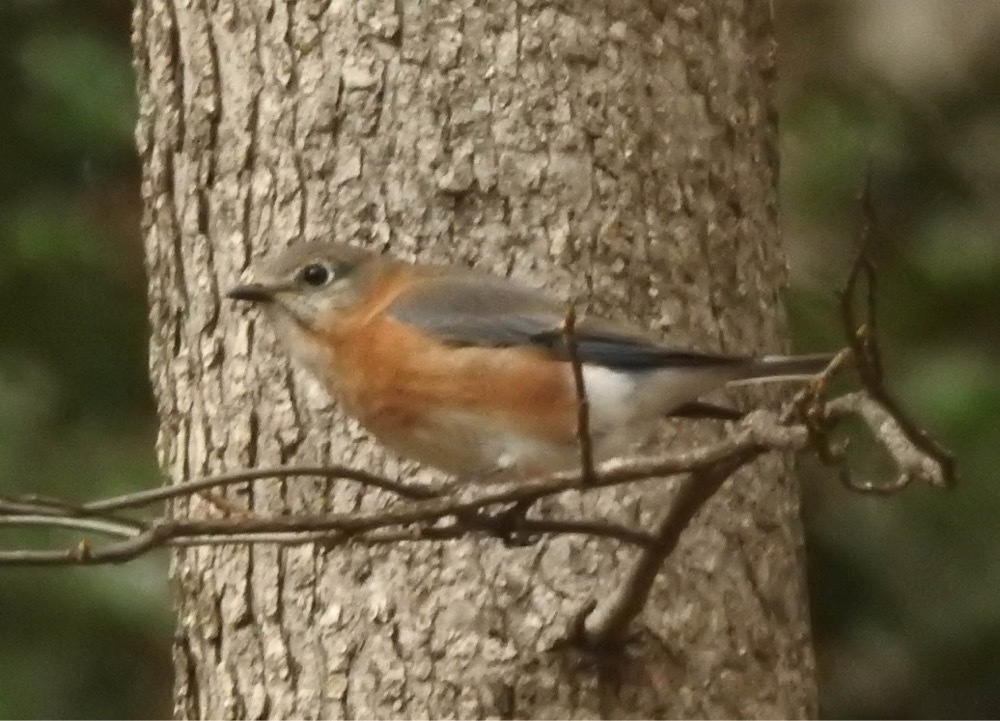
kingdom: Animalia
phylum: Chordata
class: Aves
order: Passeriformes
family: Turdidae
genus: Sialia
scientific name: Sialia sialis
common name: Eastern bluebird
